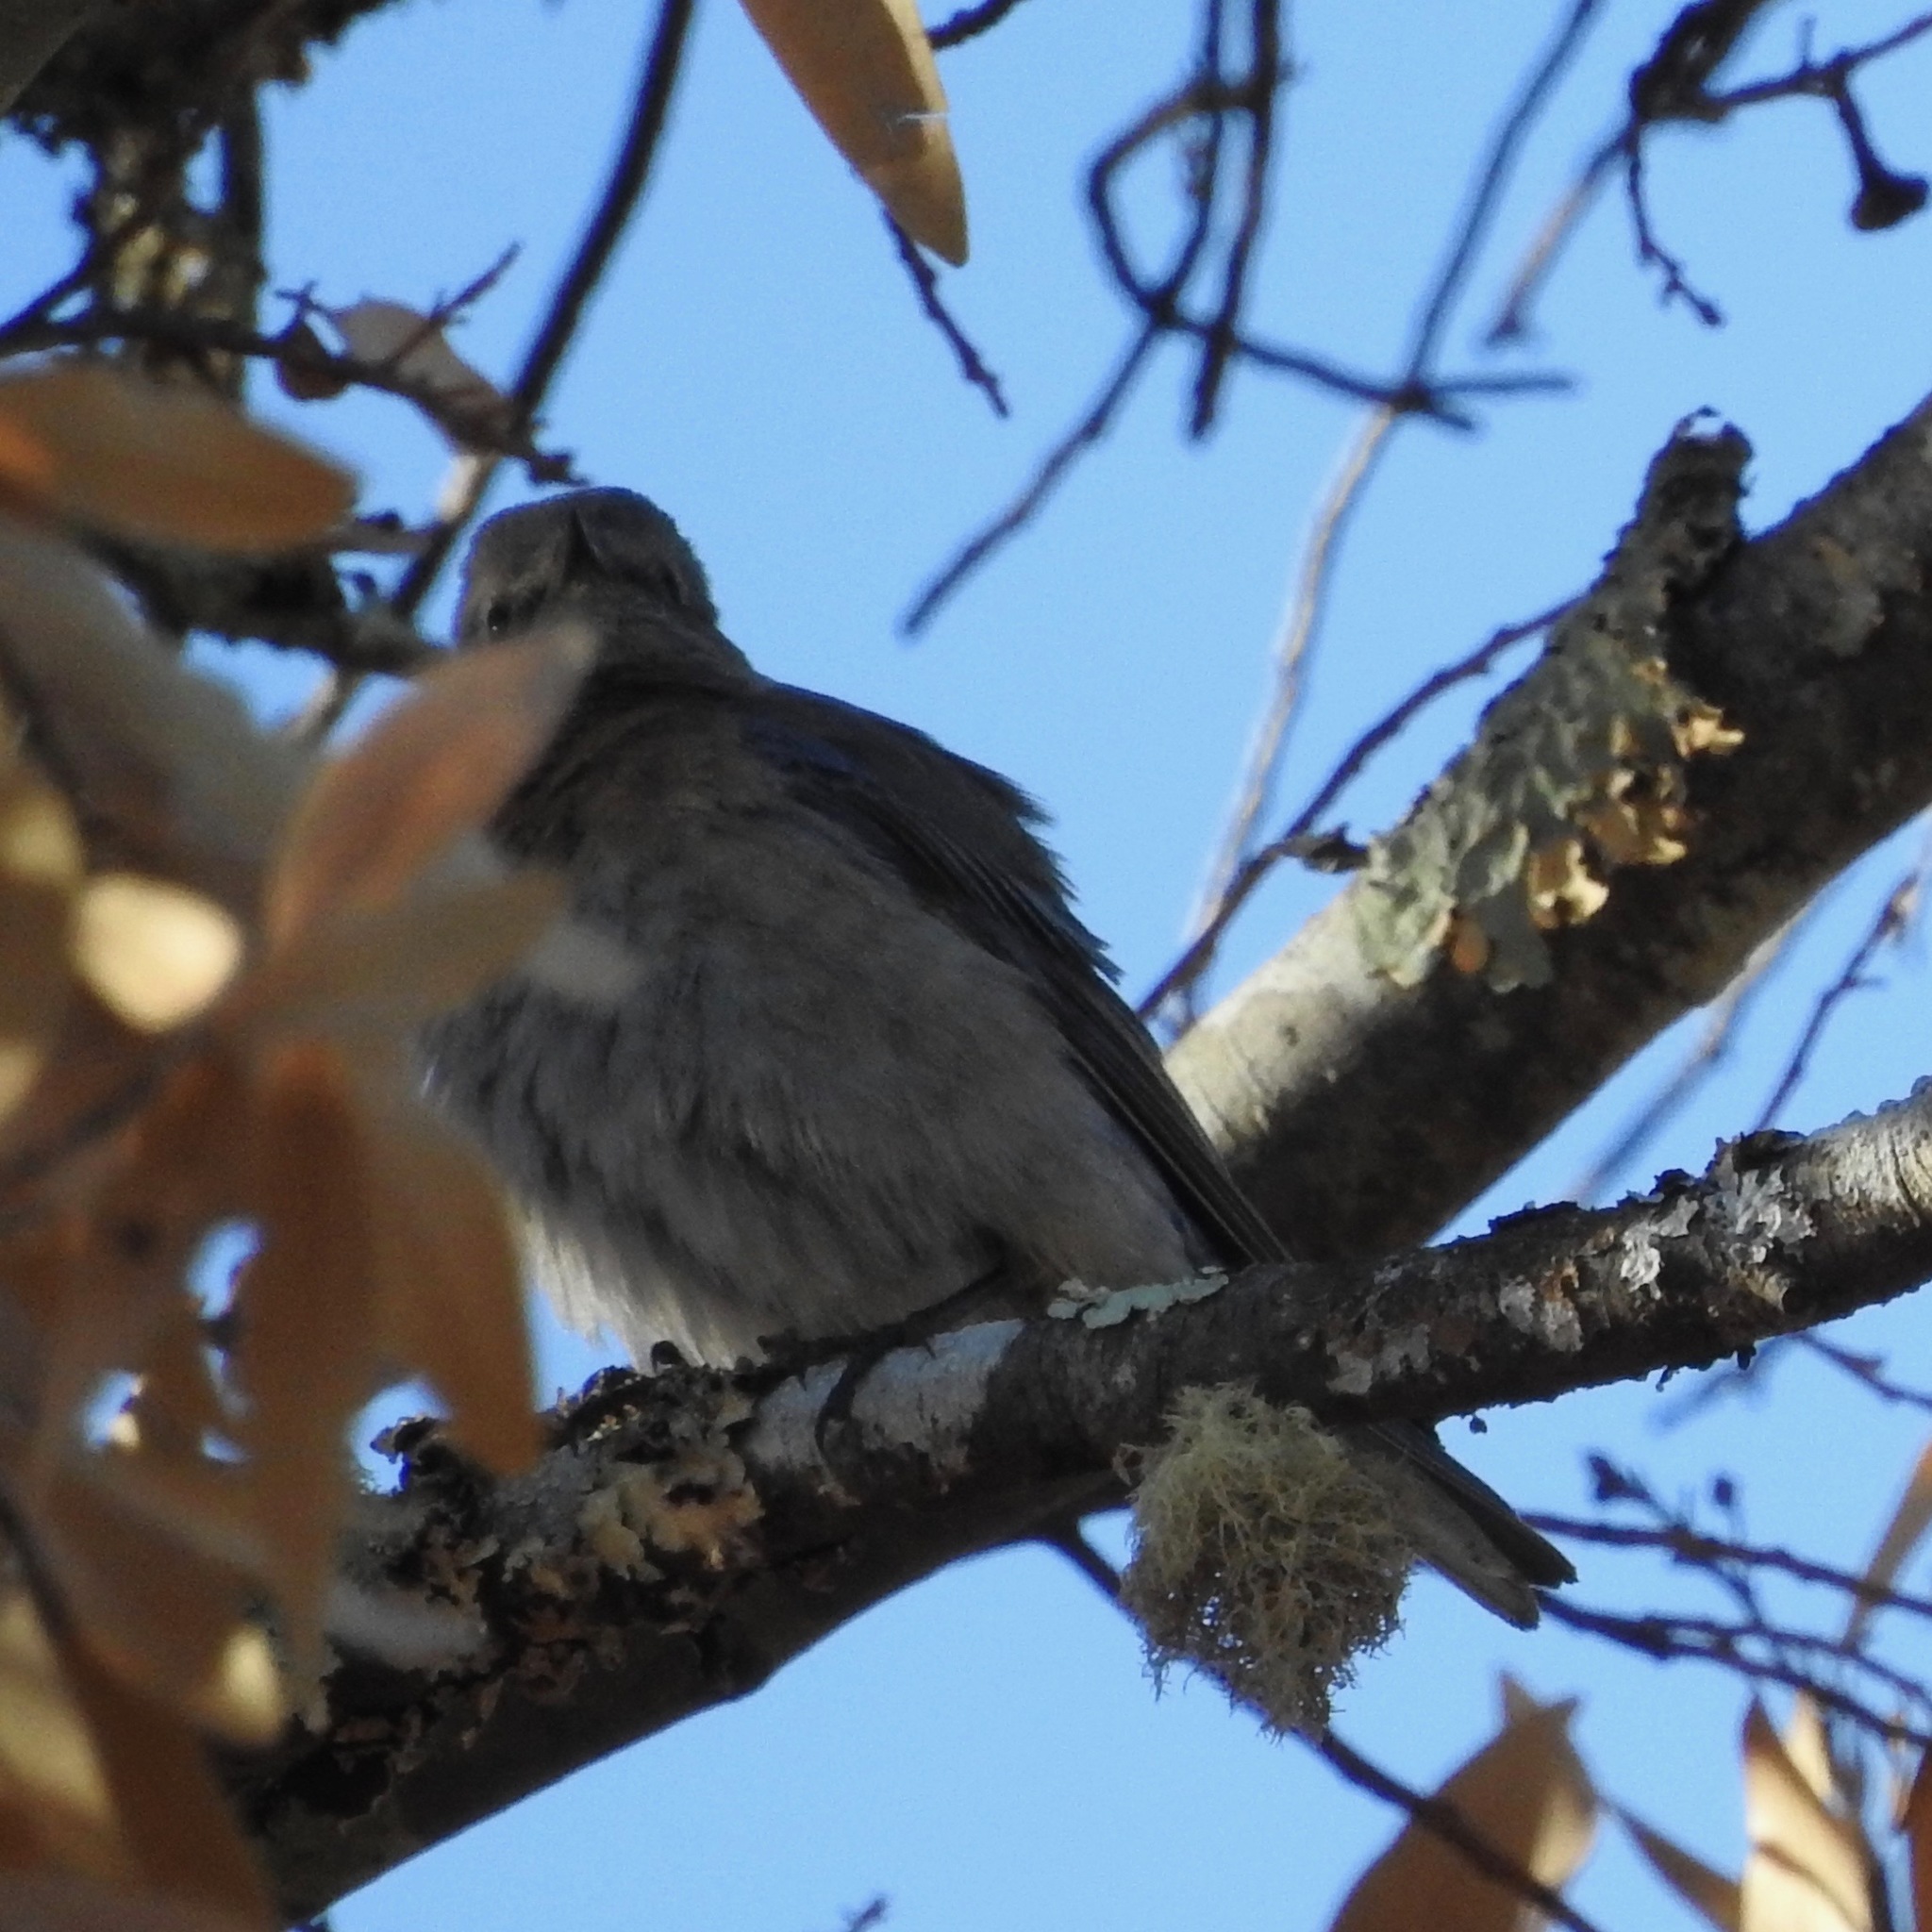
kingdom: Animalia
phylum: Chordata
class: Aves
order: Passeriformes
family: Turdidae
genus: Sialia
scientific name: Sialia mexicana
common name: Western bluebird
